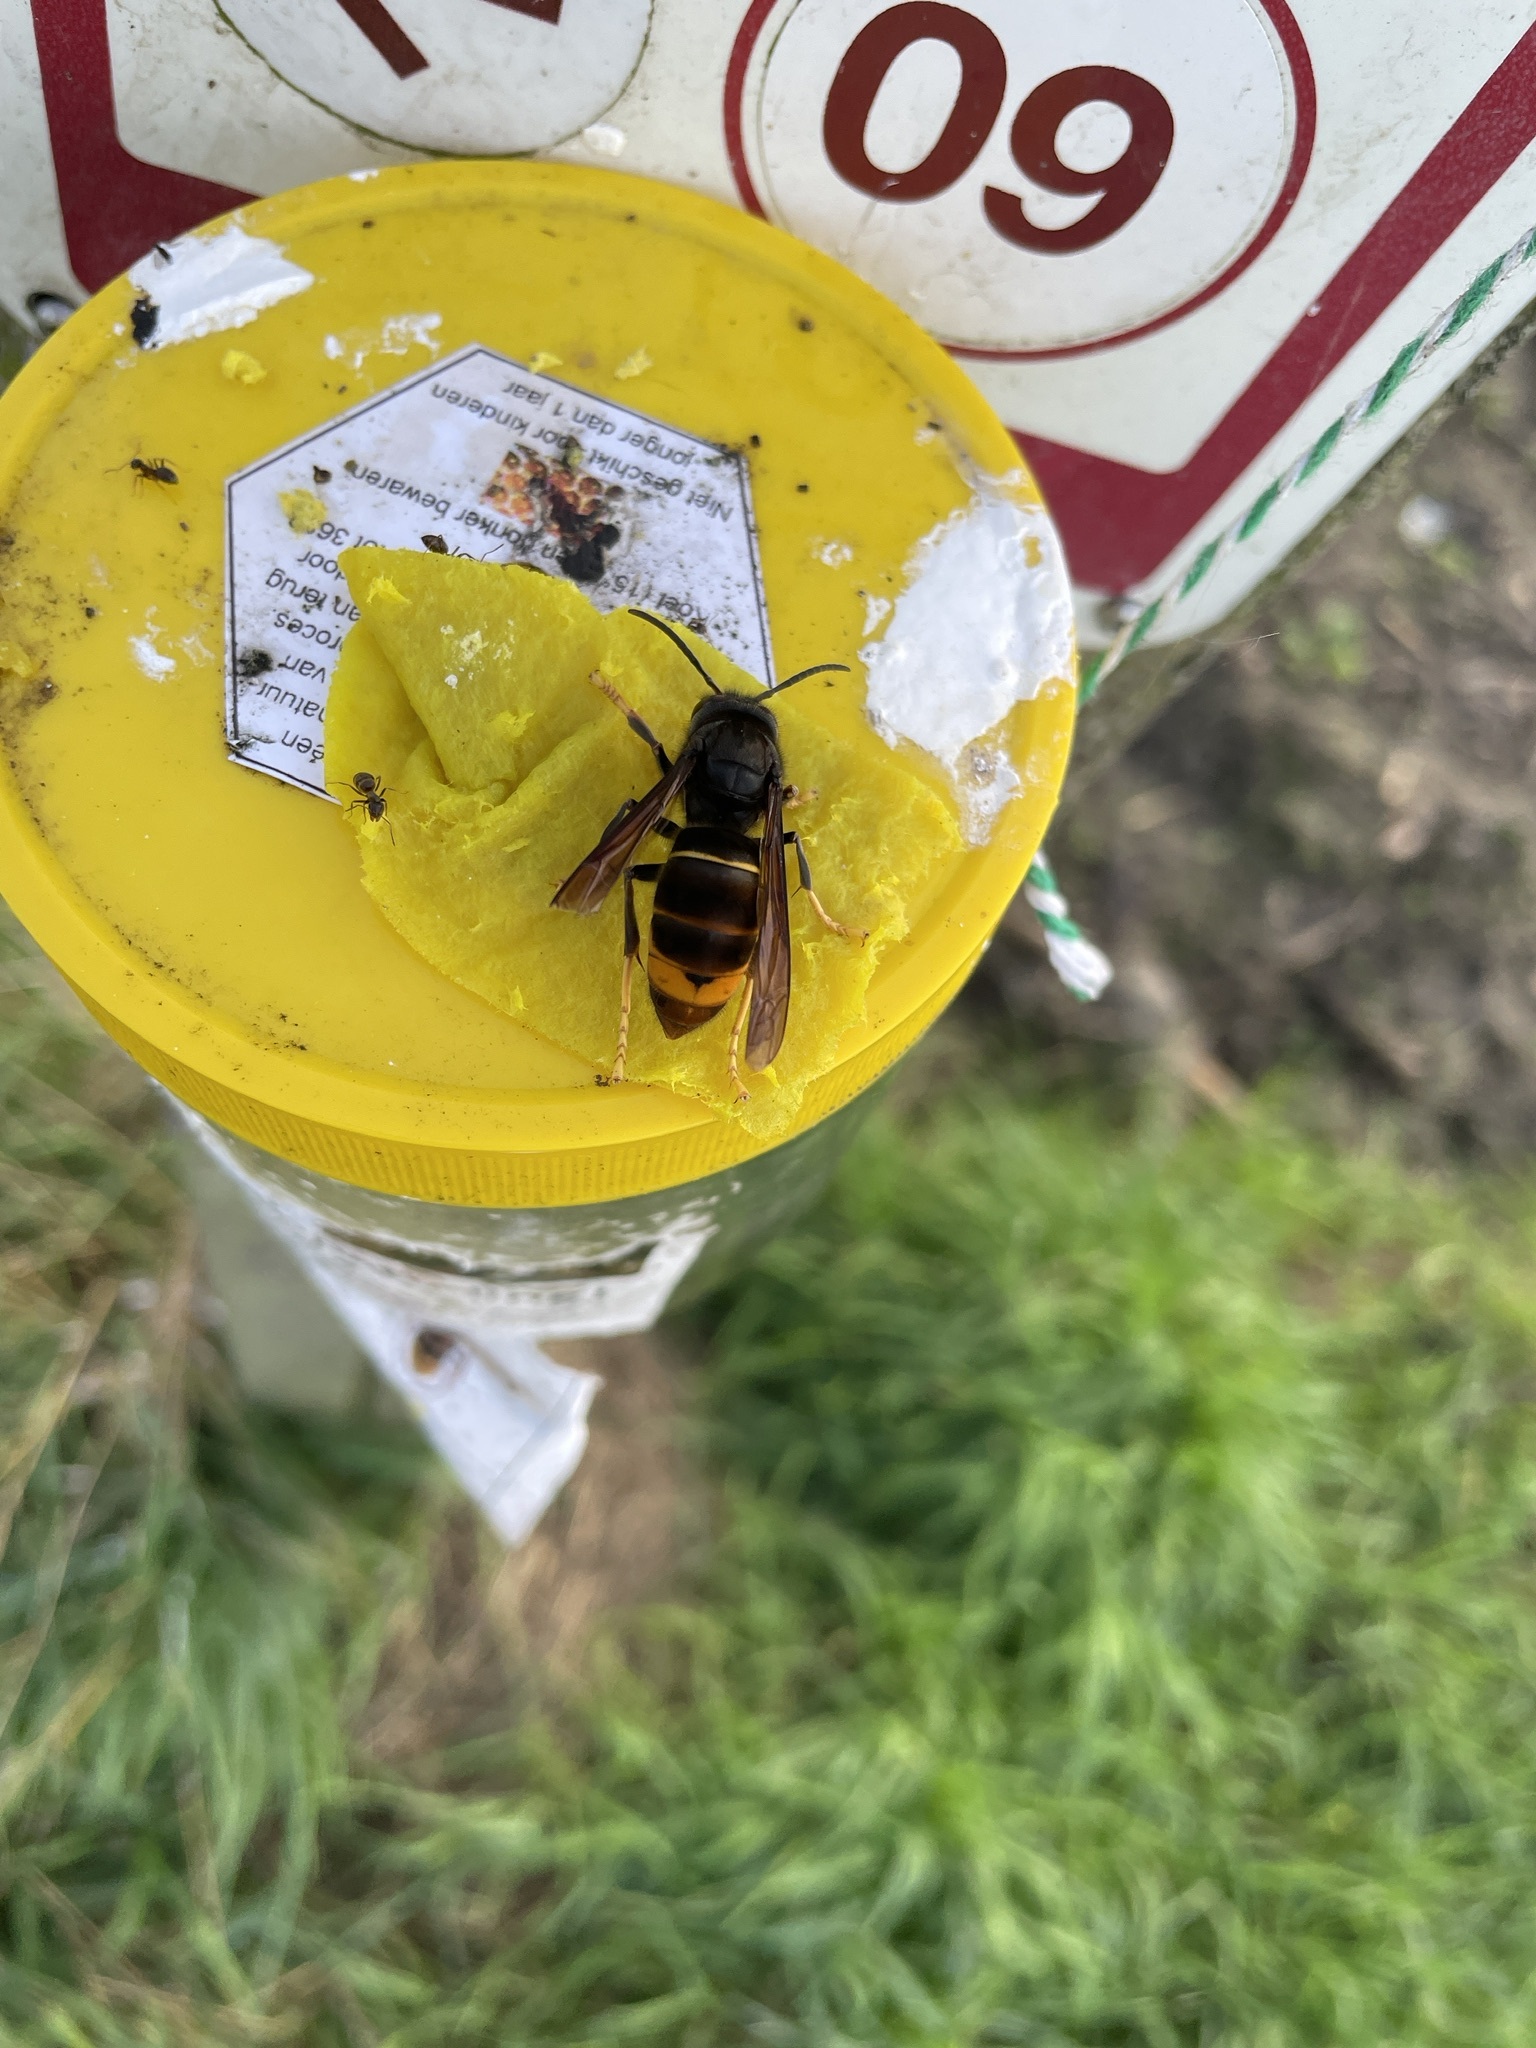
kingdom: Animalia
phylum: Arthropoda
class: Insecta
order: Hymenoptera
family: Vespidae
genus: Vespa
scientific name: Vespa velutina
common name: Asian hornet
